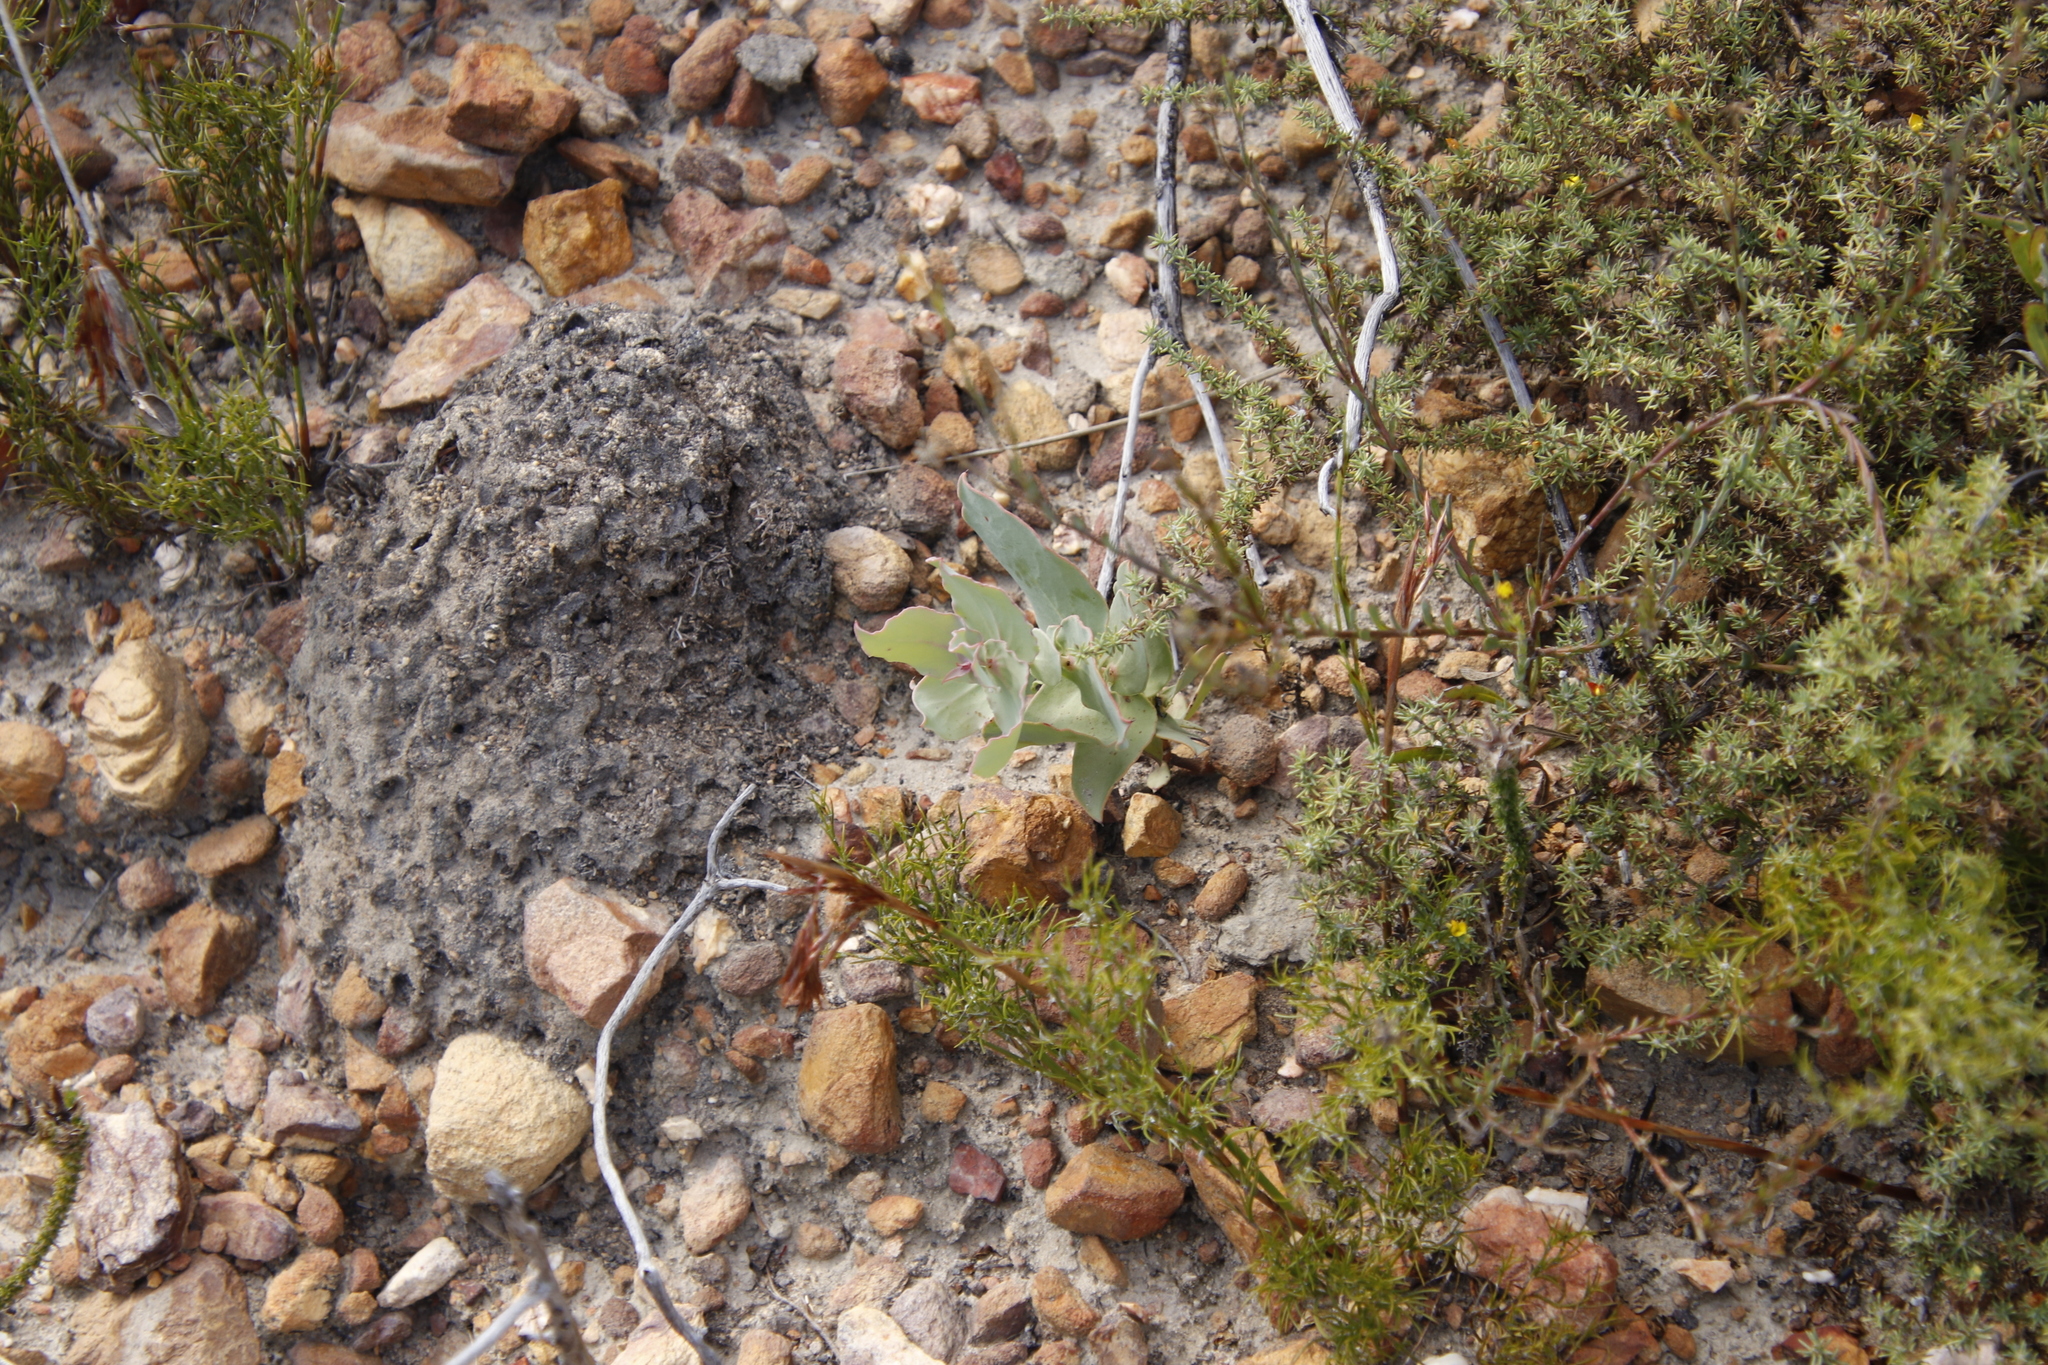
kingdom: Plantae
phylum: Tracheophyta
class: Magnoliopsida
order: Proteales
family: Proteaceae
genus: Protea
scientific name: Protea amplexicaulis
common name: Clasping-leaf sugarbush
